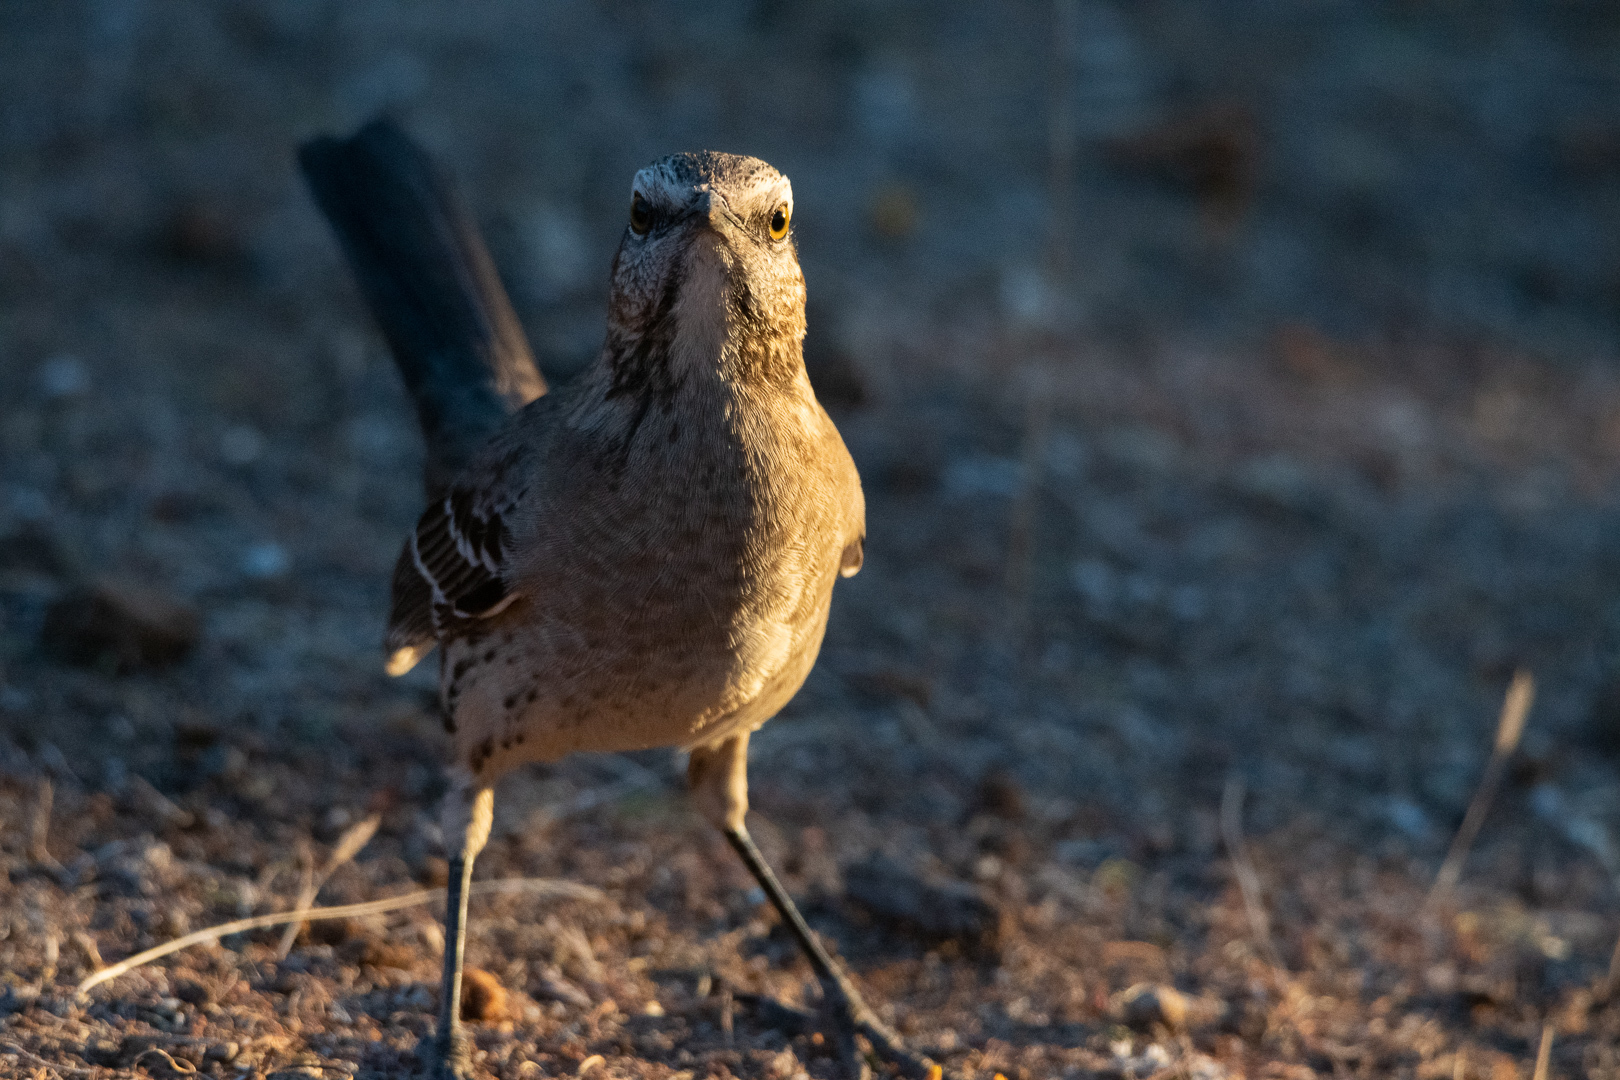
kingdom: Animalia
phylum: Chordata
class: Aves
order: Passeriformes
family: Mimidae
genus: Mimus
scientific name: Mimus thenca
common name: Chilean mockingbird
